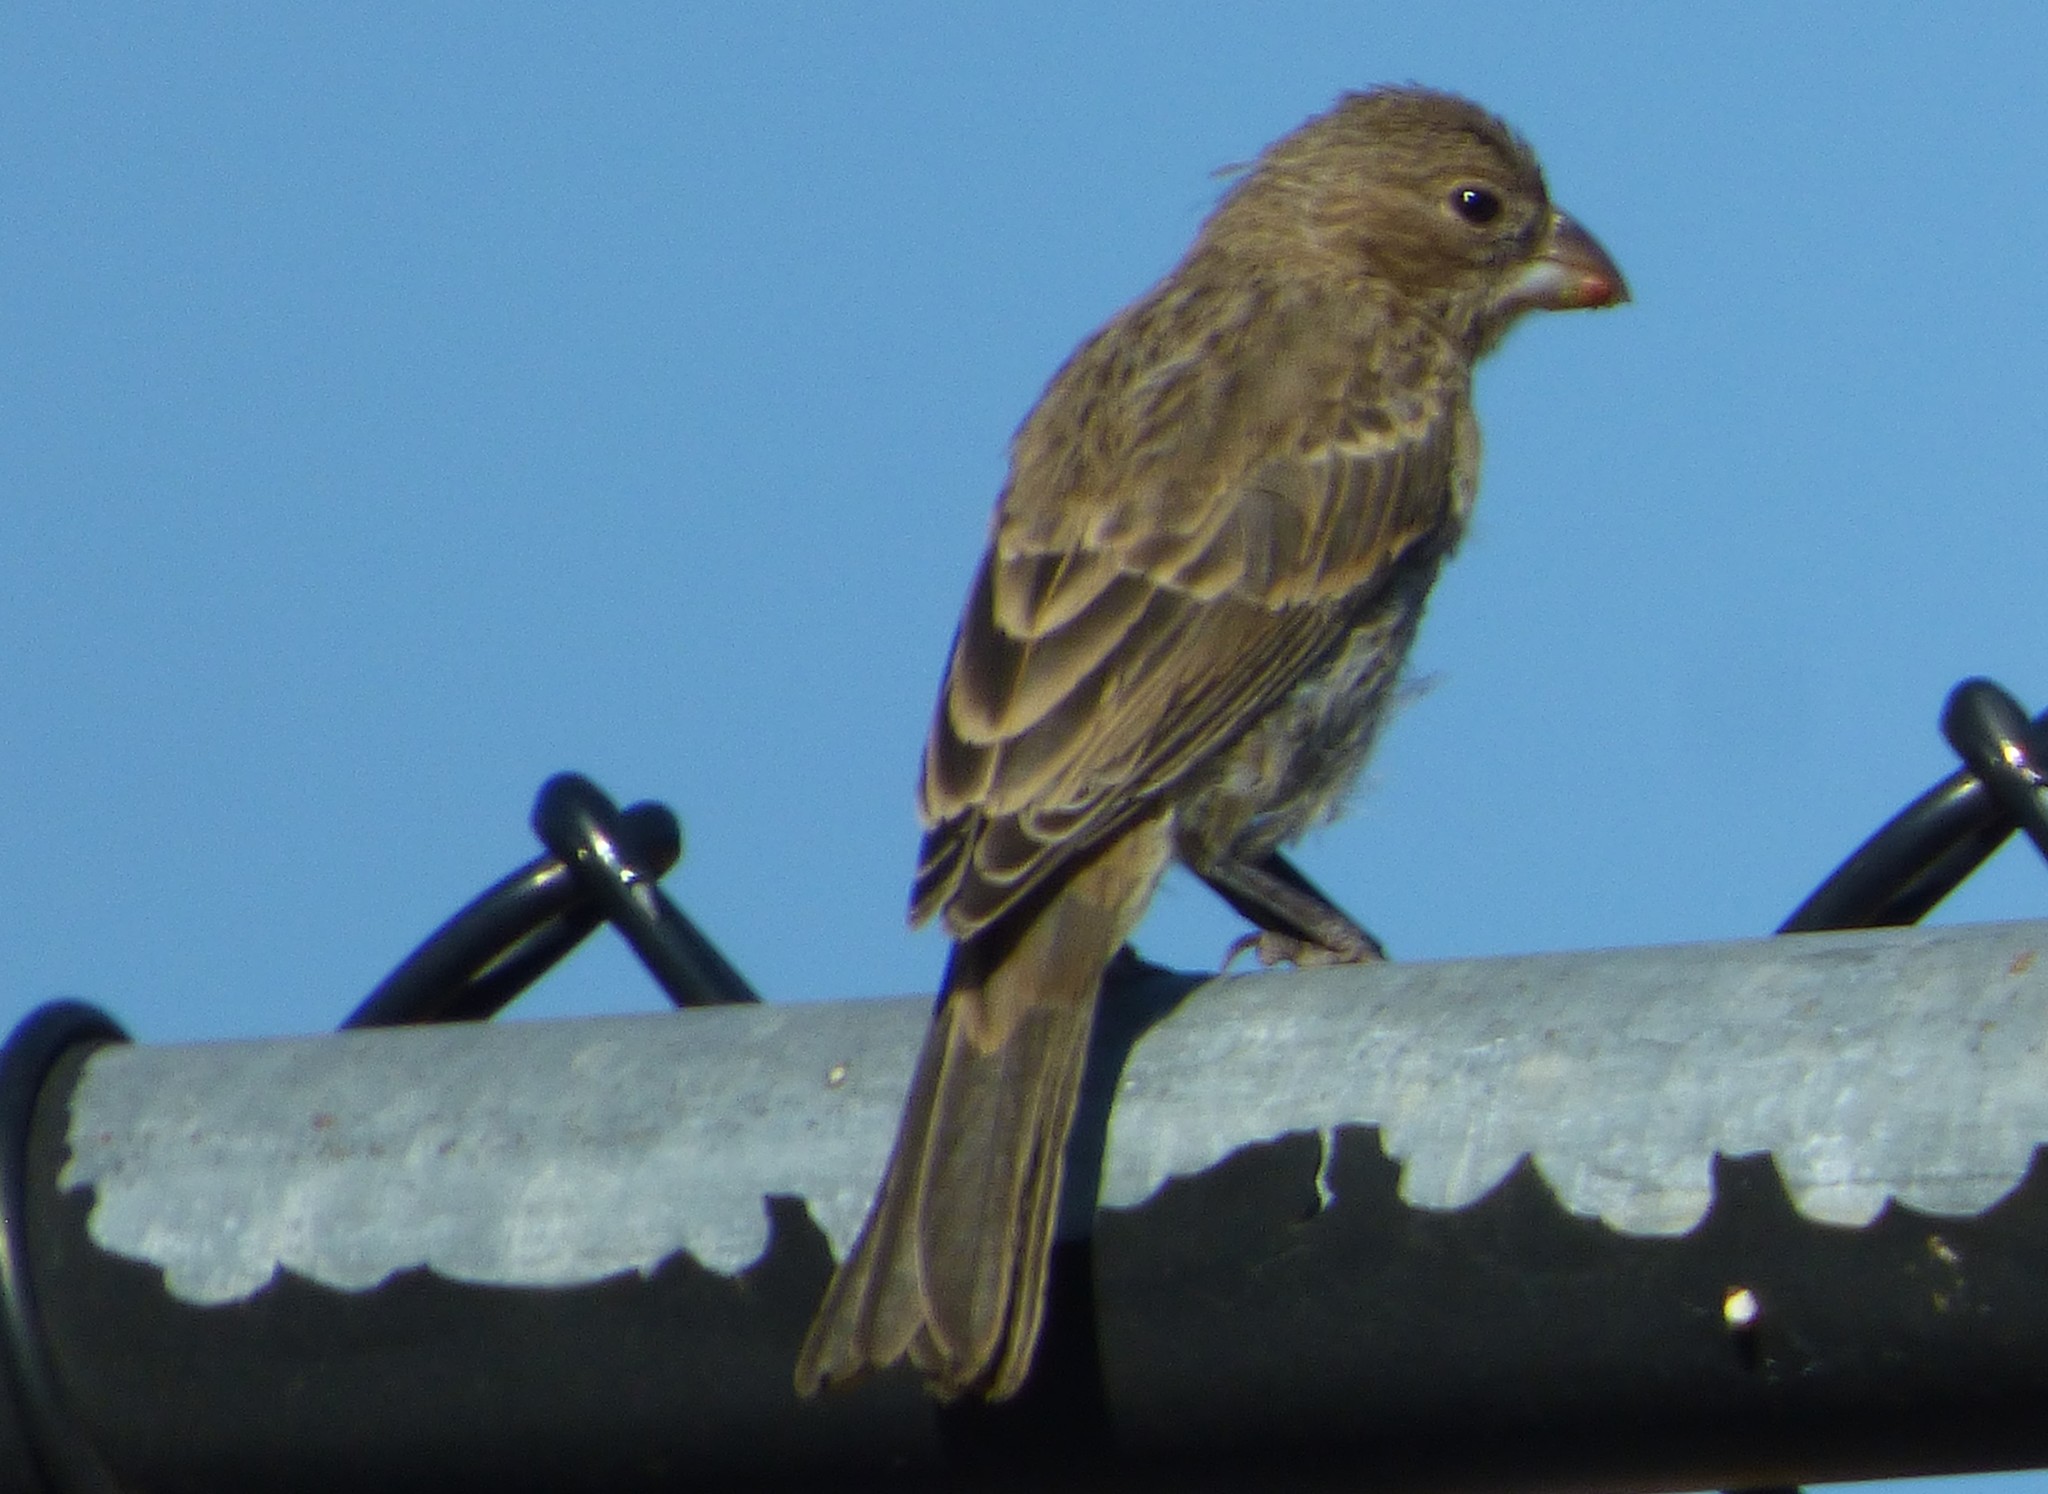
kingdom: Animalia
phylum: Chordata
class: Aves
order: Passeriformes
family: Fringillidae
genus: Haemorhous
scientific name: Haemorhous mexicanus
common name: House finch
